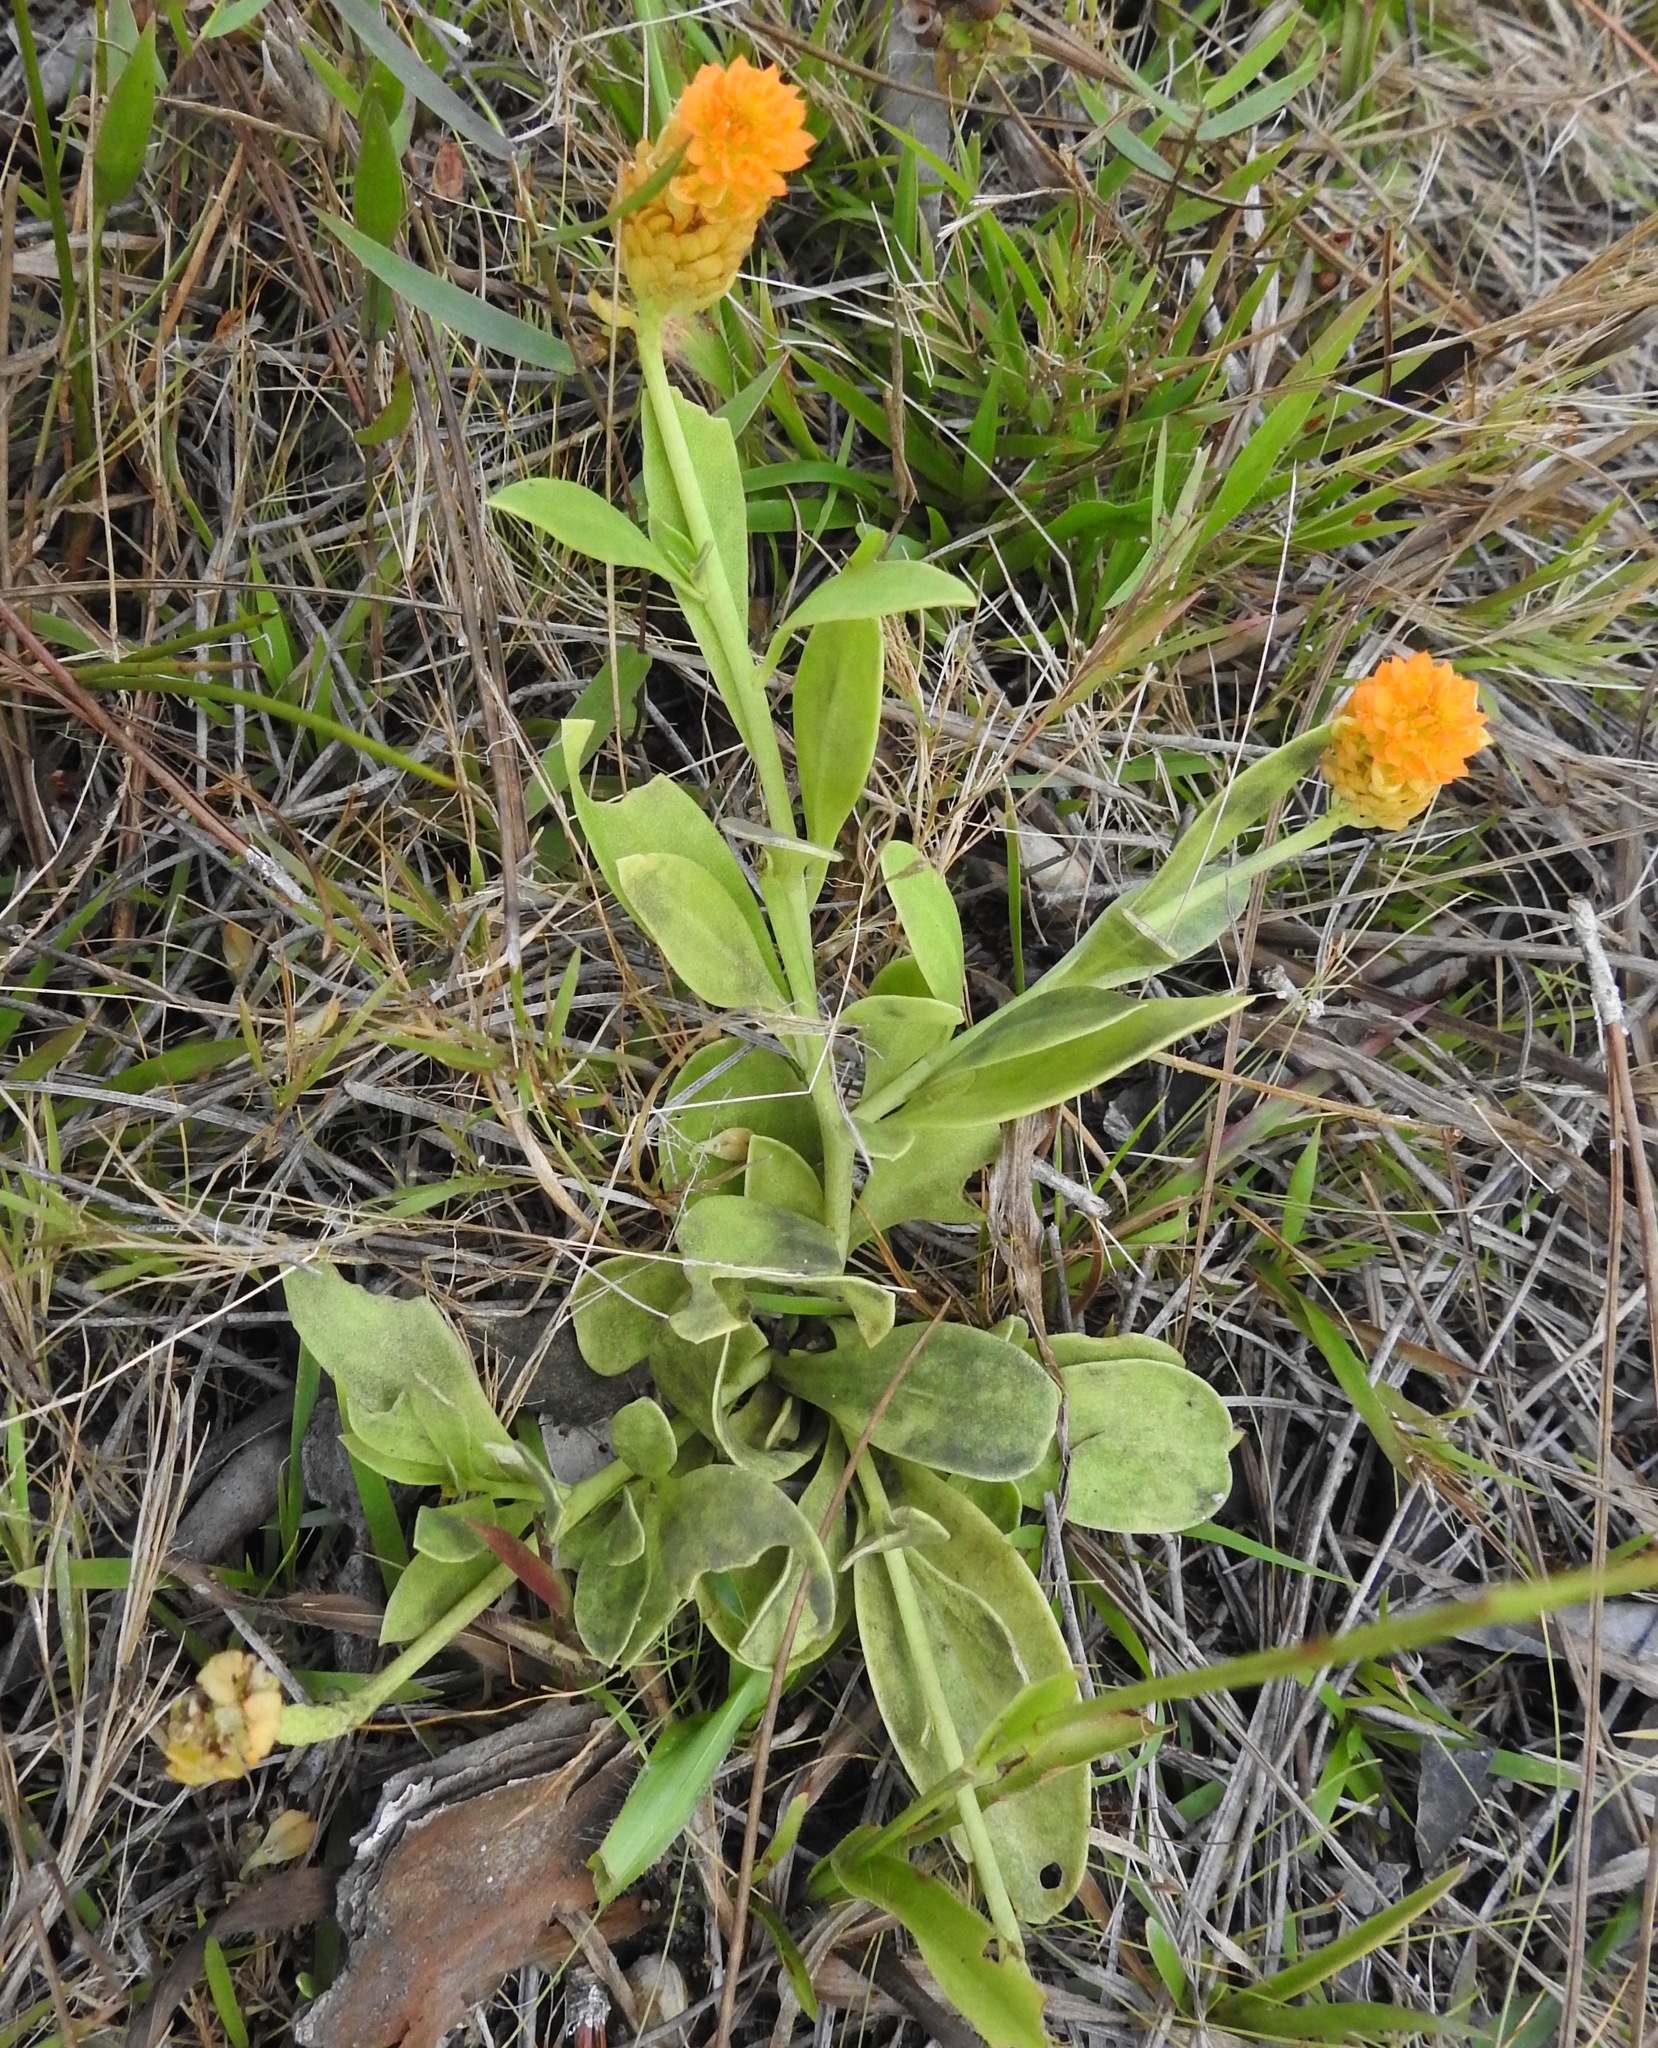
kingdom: Plantae
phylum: Tracheophyta
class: Magnoliopsida
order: Fabales
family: Polygalaceae
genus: Polygala
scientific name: Polygala lutea
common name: Orange milkwort
